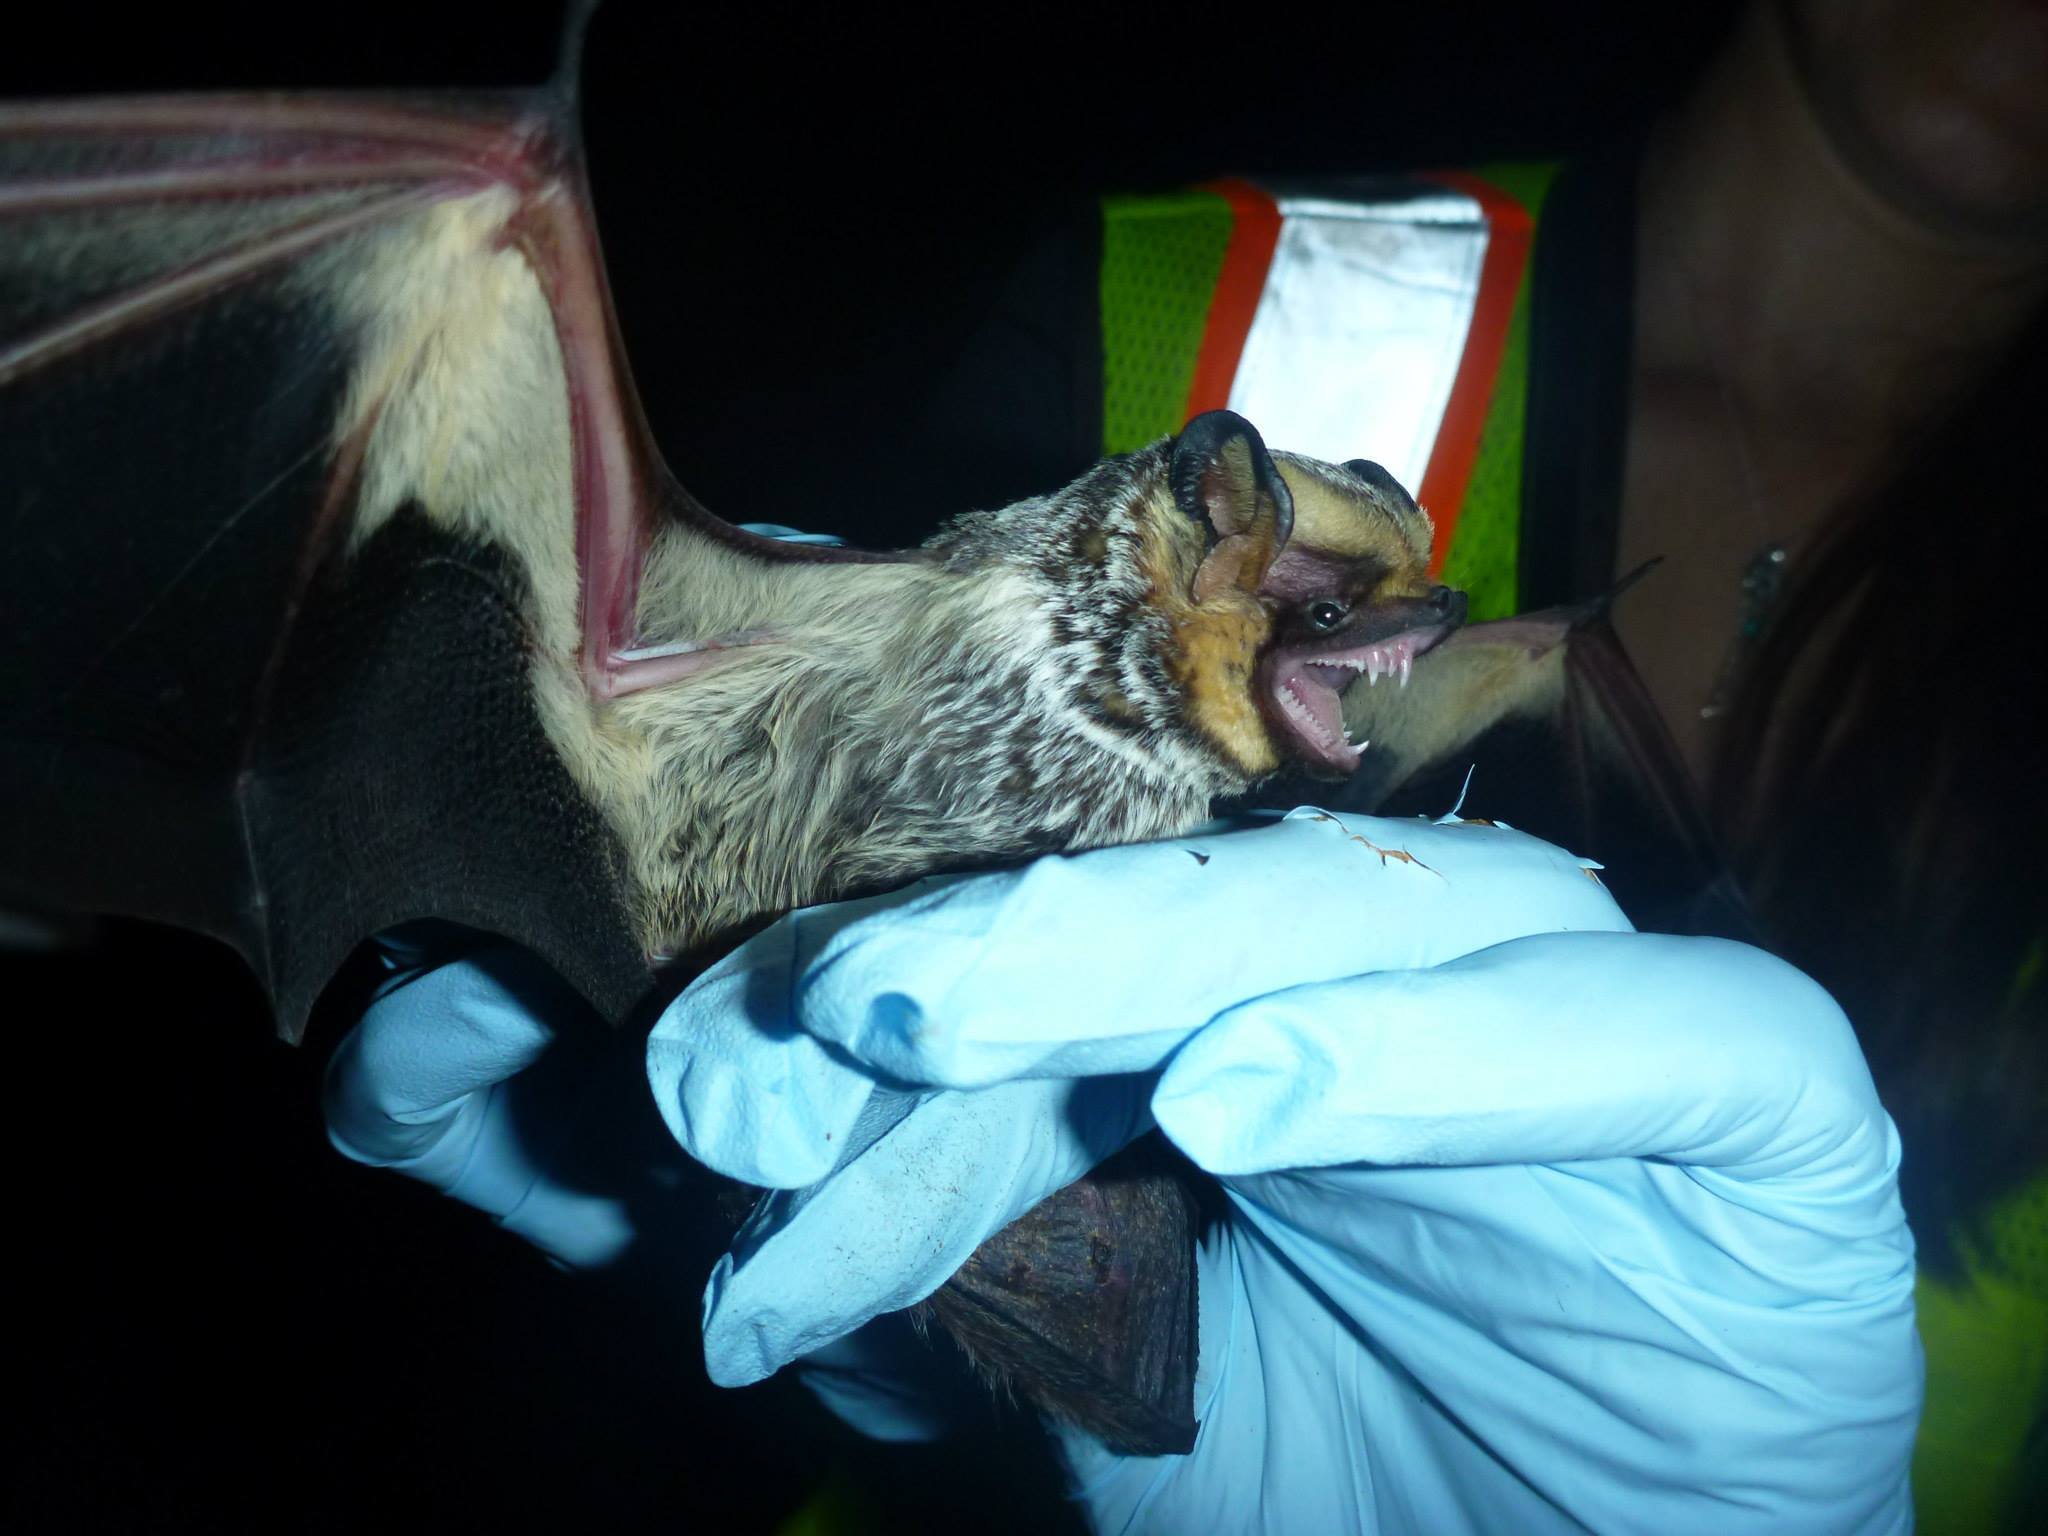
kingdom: Animalia
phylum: Chordata
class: Mammalia
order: Chiroptera
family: Vespertilionidae
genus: Aeorestes
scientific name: Aeorestes cinereus
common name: North american hoary bat
